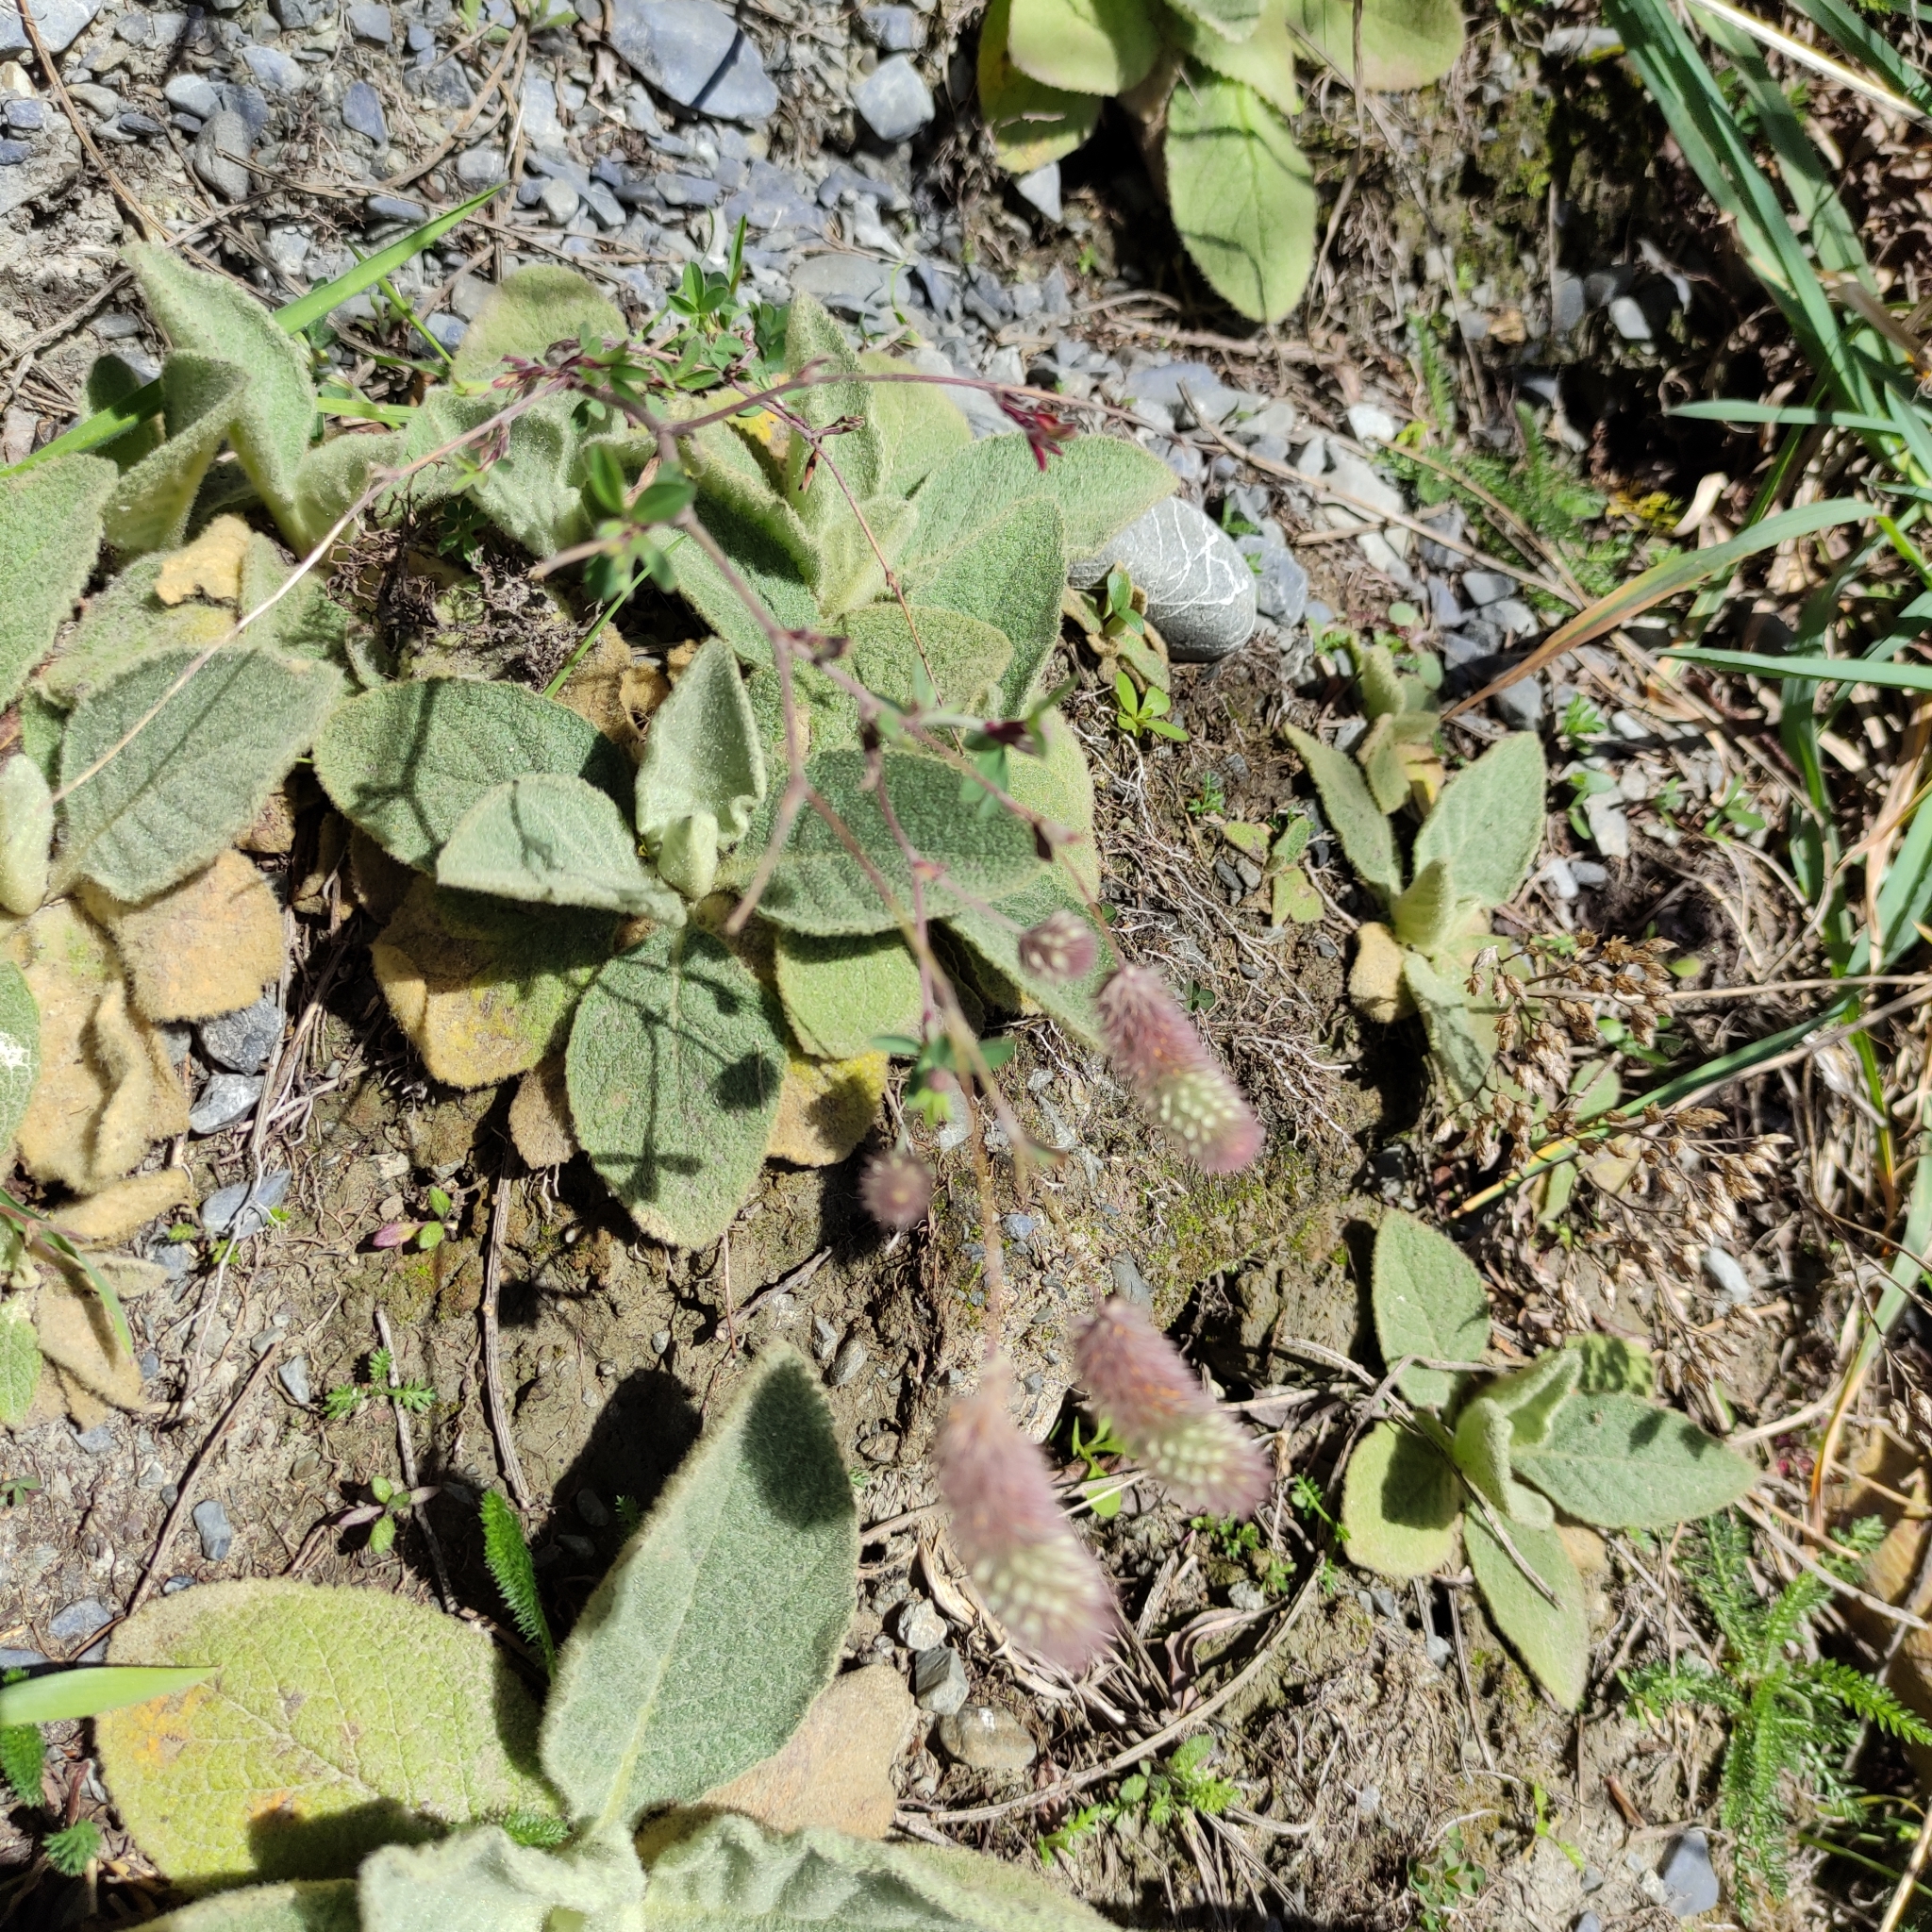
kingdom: Plantae
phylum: Tracheophyta
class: Magnoliopsida
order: Fabales
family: Fabaceae
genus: Trifolium
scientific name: Trifolium arvense
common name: Hare's-foot clover
